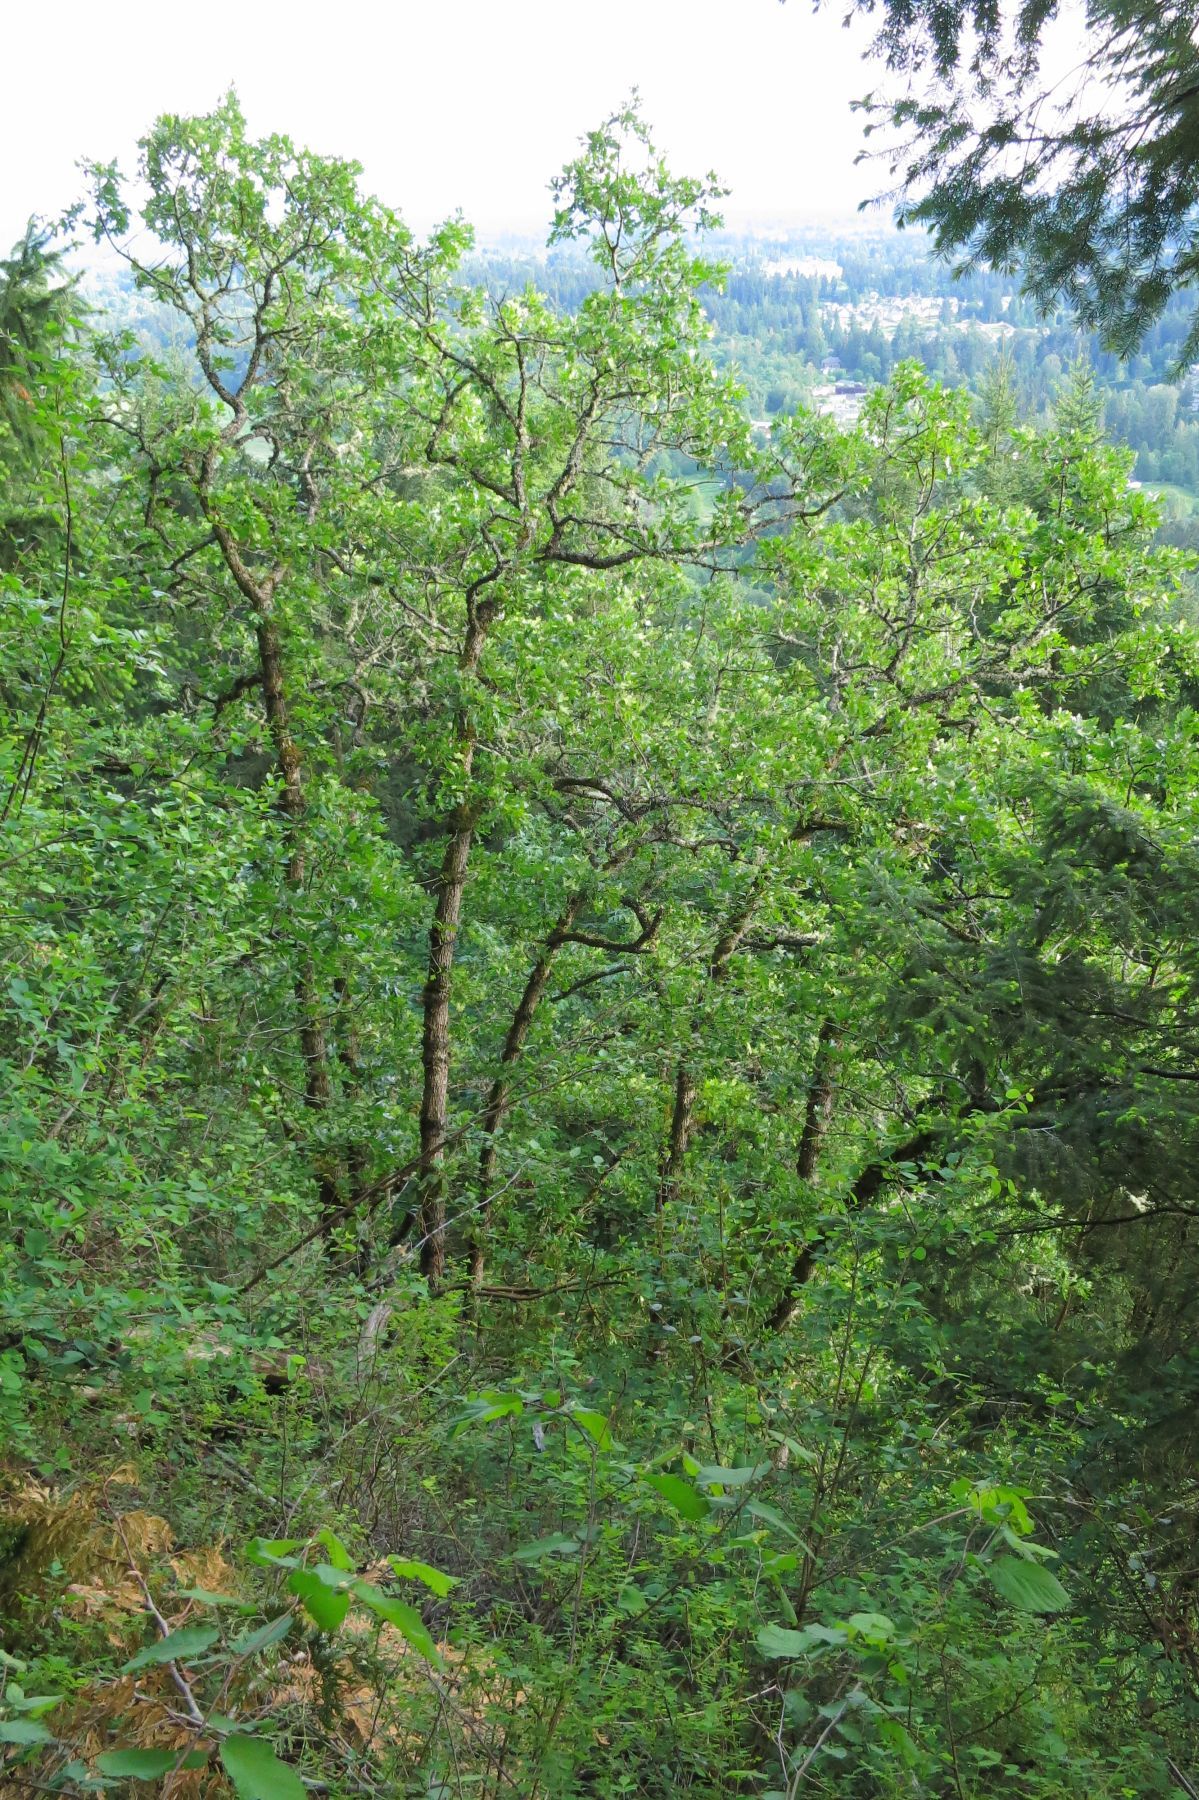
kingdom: Plantae
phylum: Tracheophyta
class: Magnoliopsida
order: Fagales
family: Fagaceae
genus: Quercus
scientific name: Quercus garryana
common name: Garry oak
